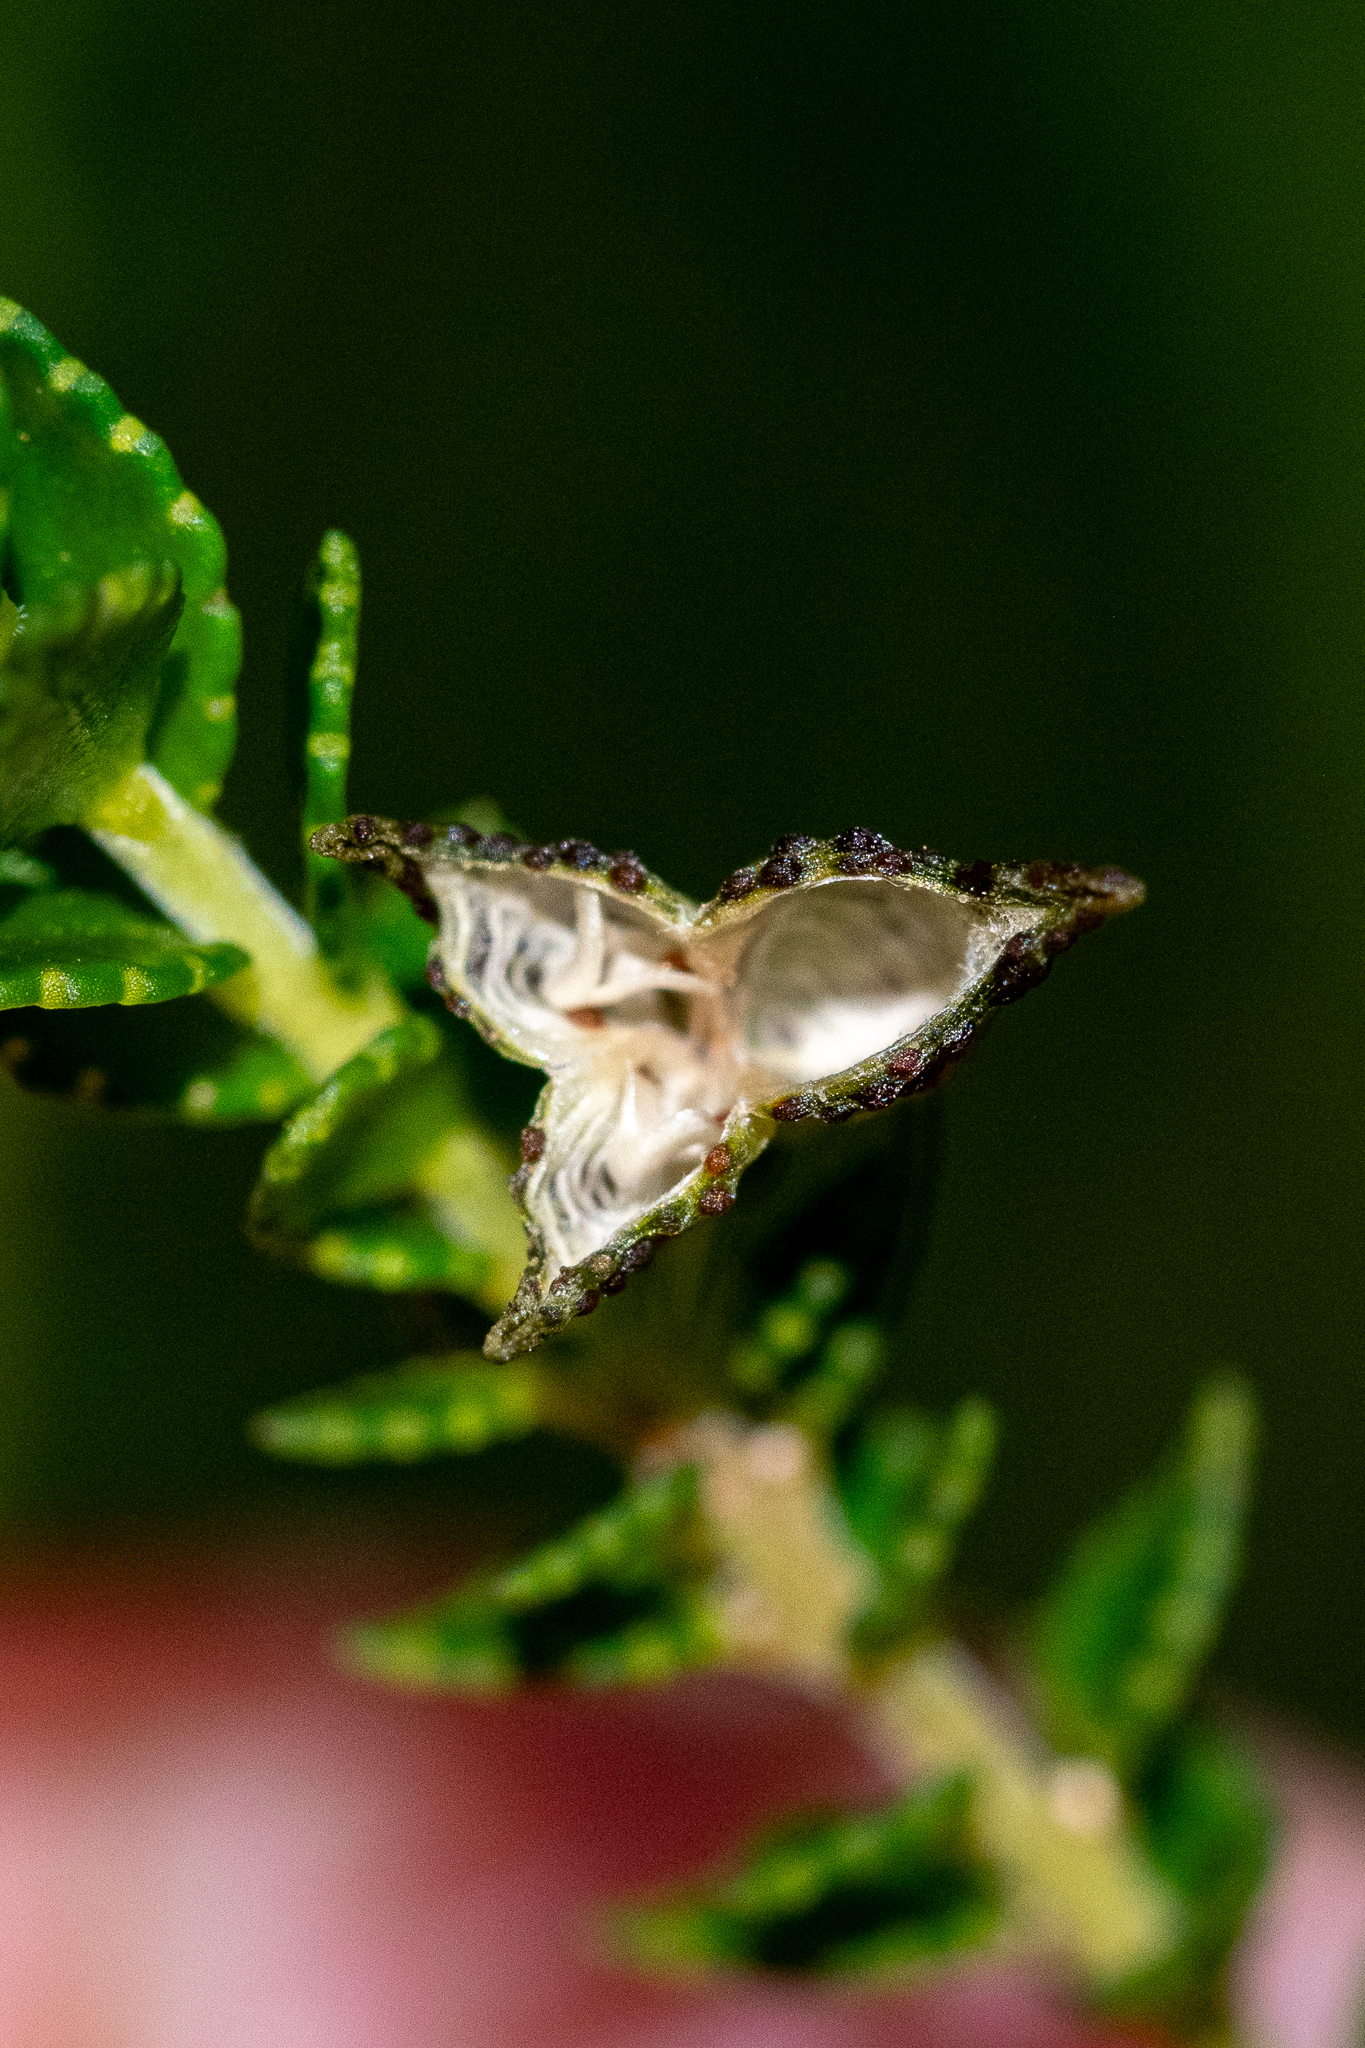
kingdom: Plantae
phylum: Tracheophyta
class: Magnoliopsida
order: Sapindales
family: Rutaceae
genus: Agathosma
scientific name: Agathosma tabularis
